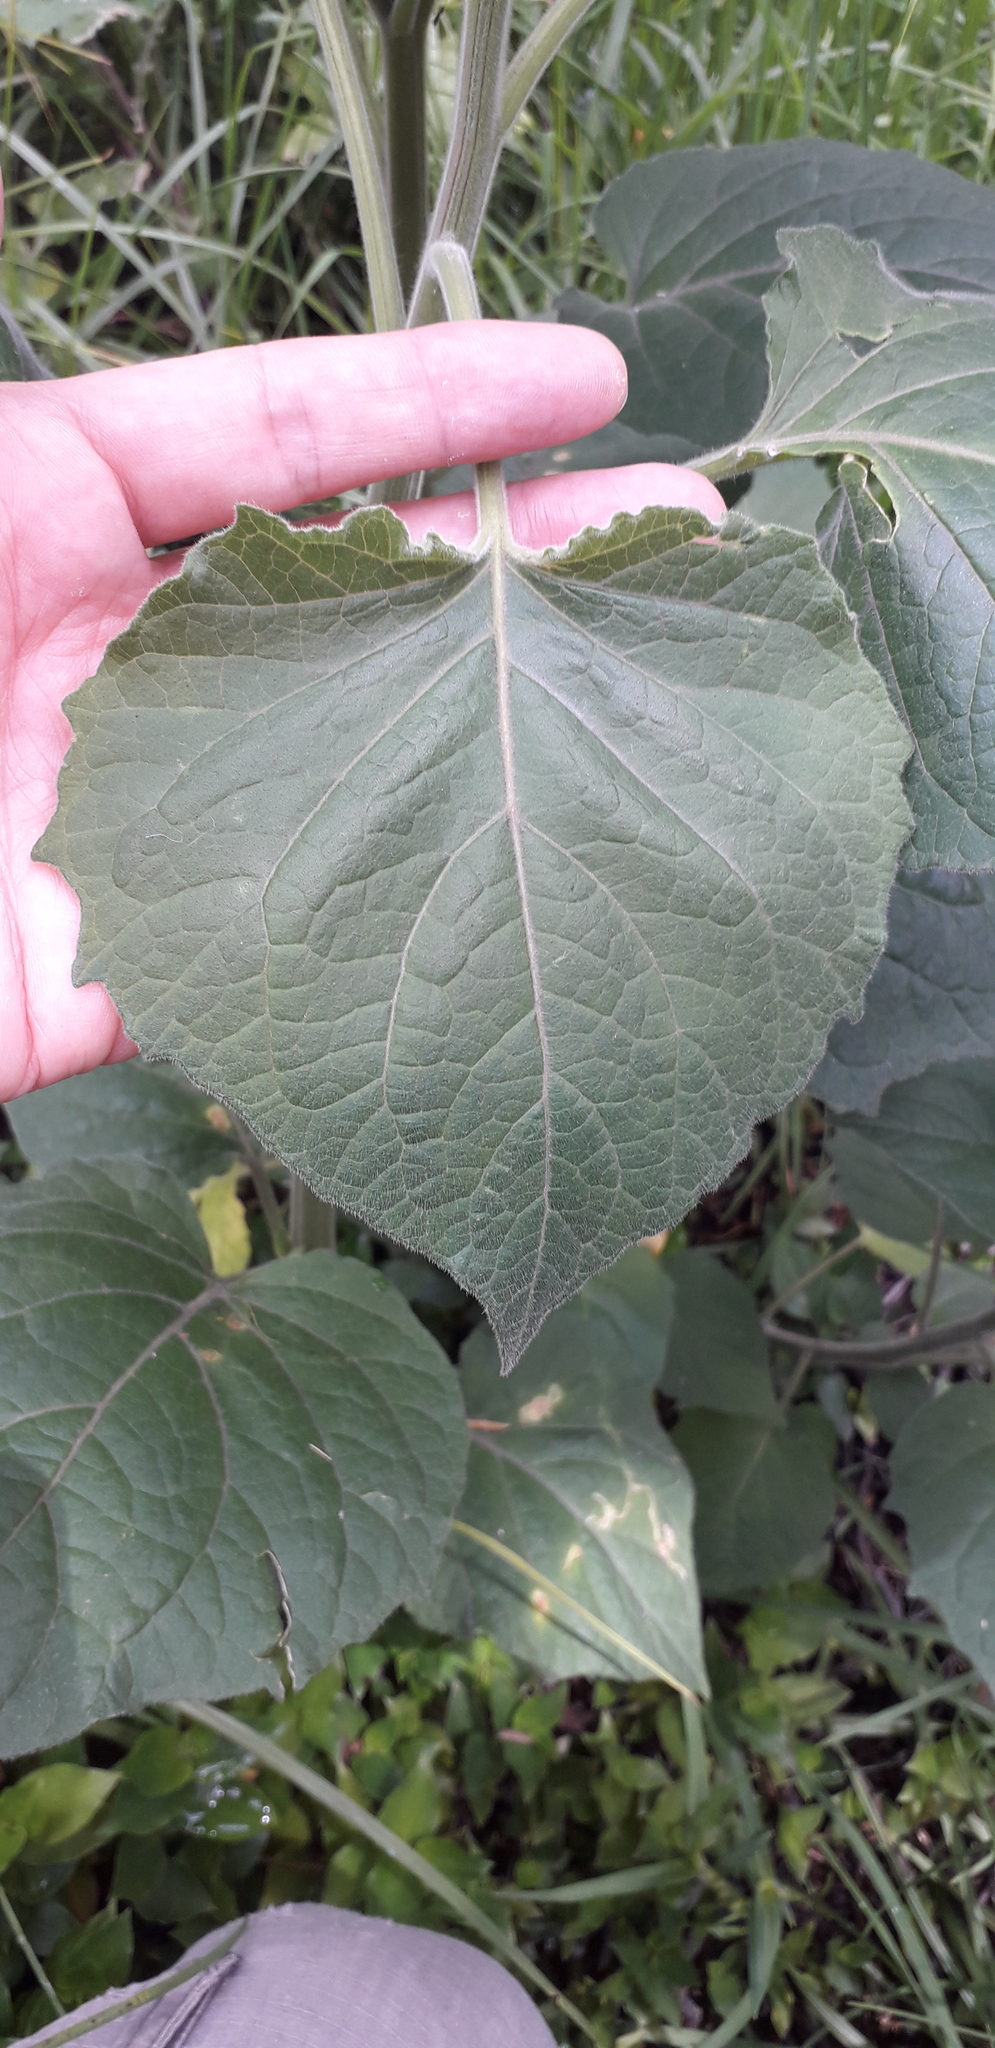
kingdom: Plantae
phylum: Tracheophyta
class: Magnoliopsida
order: Solanales
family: Solanaceae
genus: Physalis
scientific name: Physalis peruviana
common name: Cape-gooseberry
